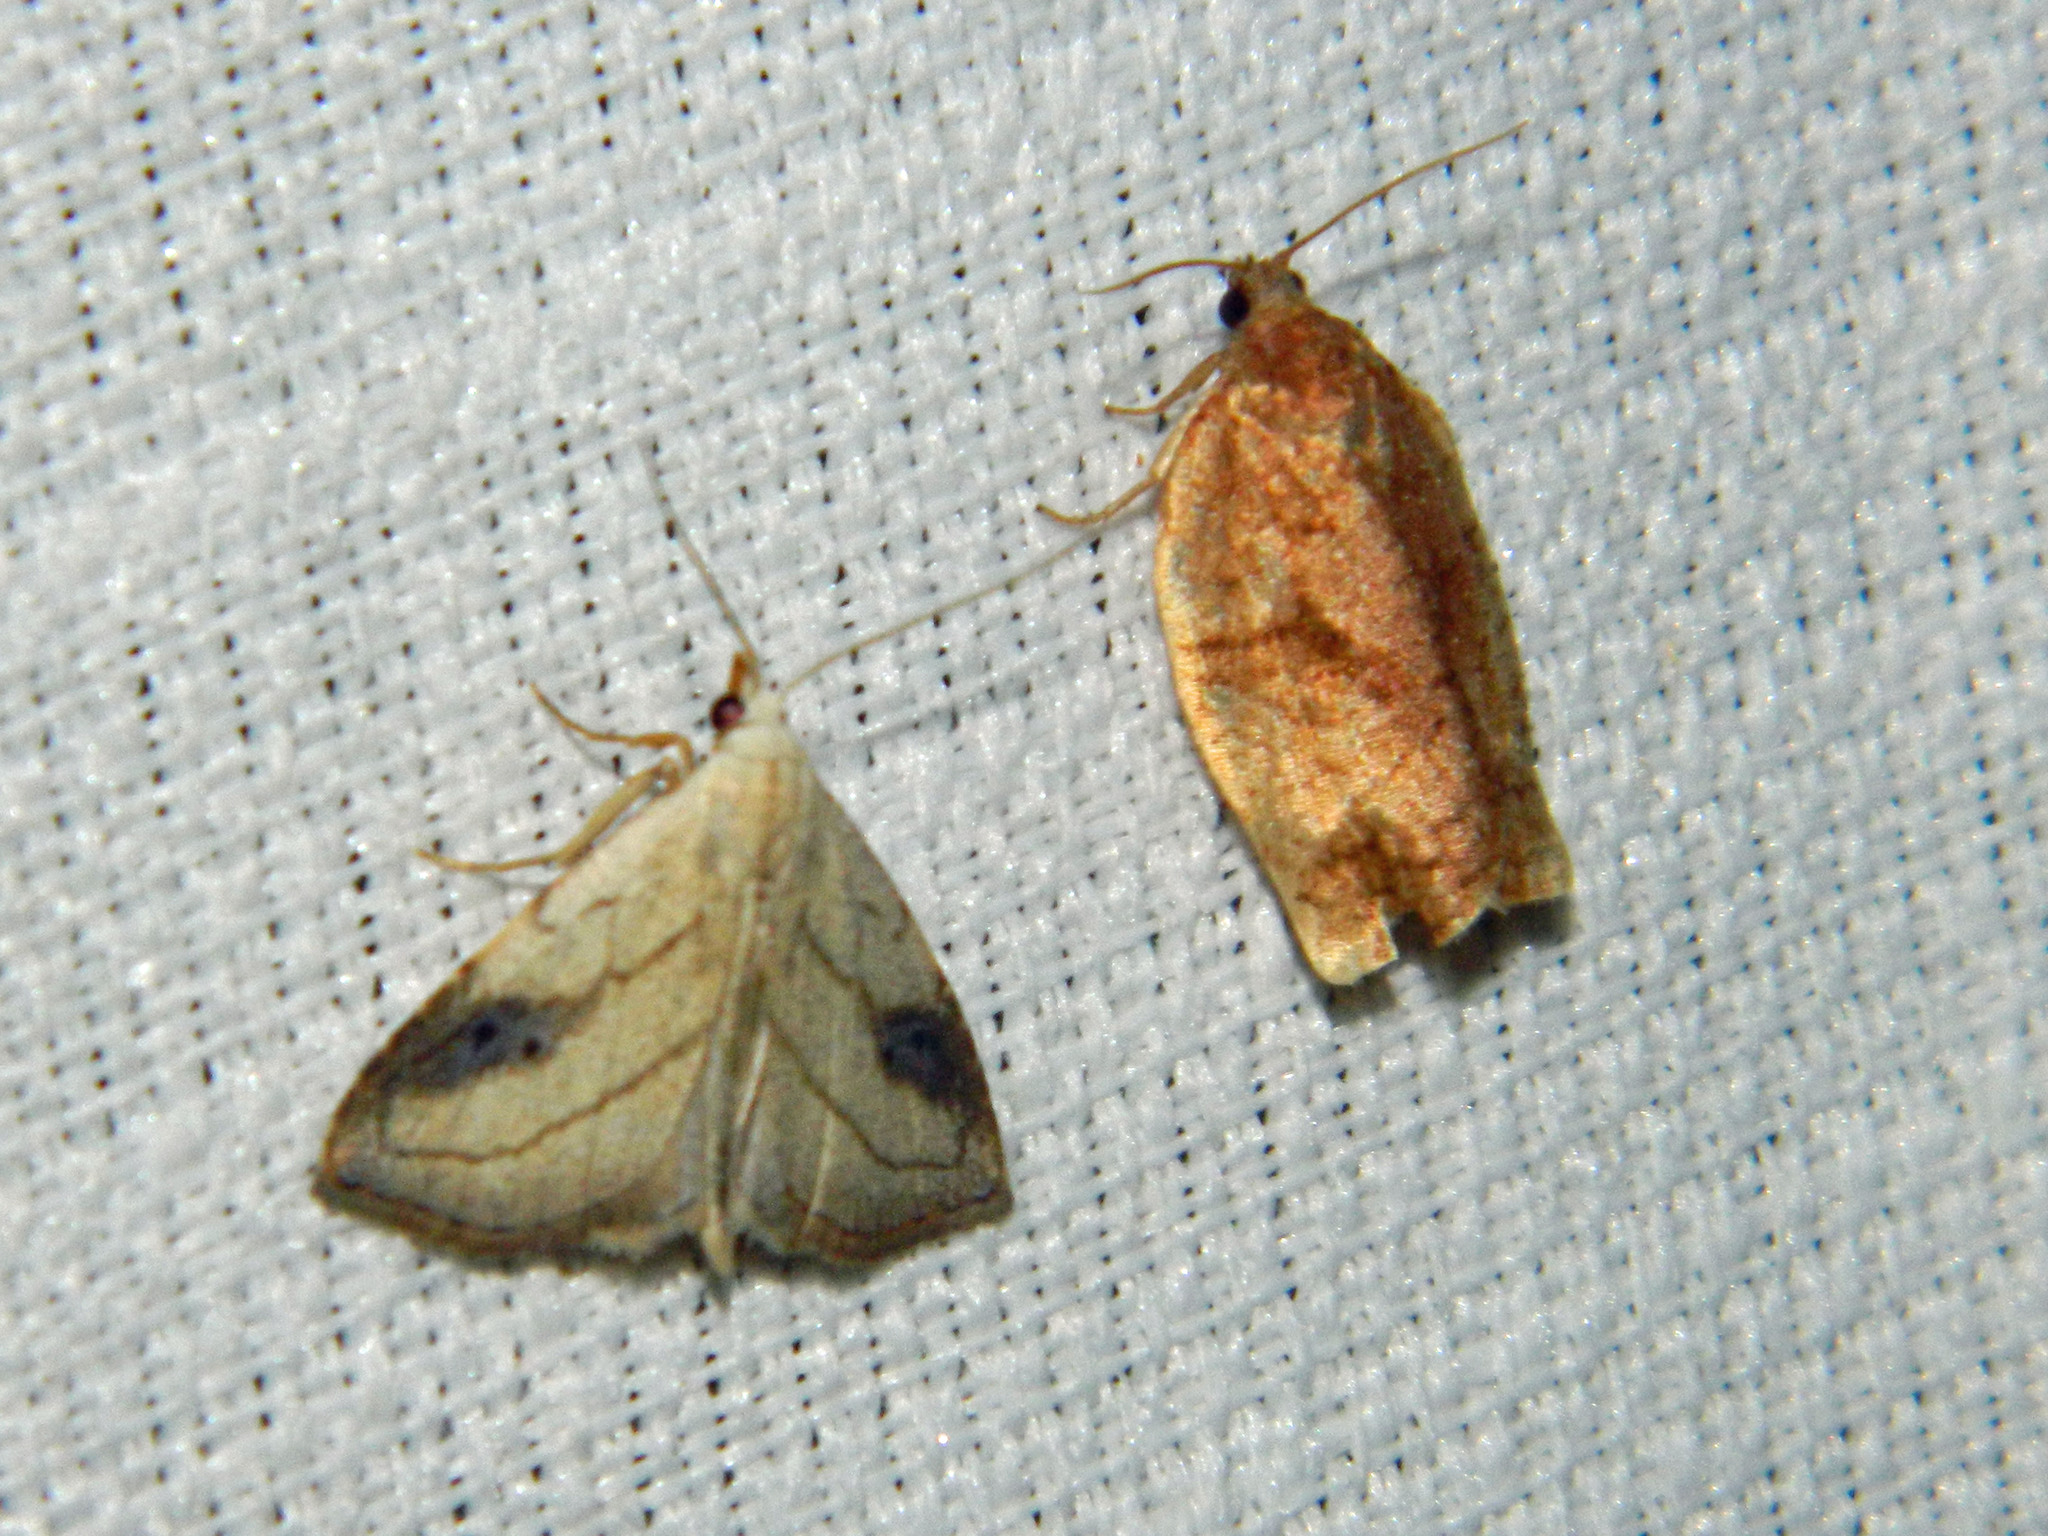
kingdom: Animalia
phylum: Arthropoda
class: Insecta
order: Lepidoptera
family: Erebidae
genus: Rivula
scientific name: Rivula propinqualis
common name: Spotted grass moth
